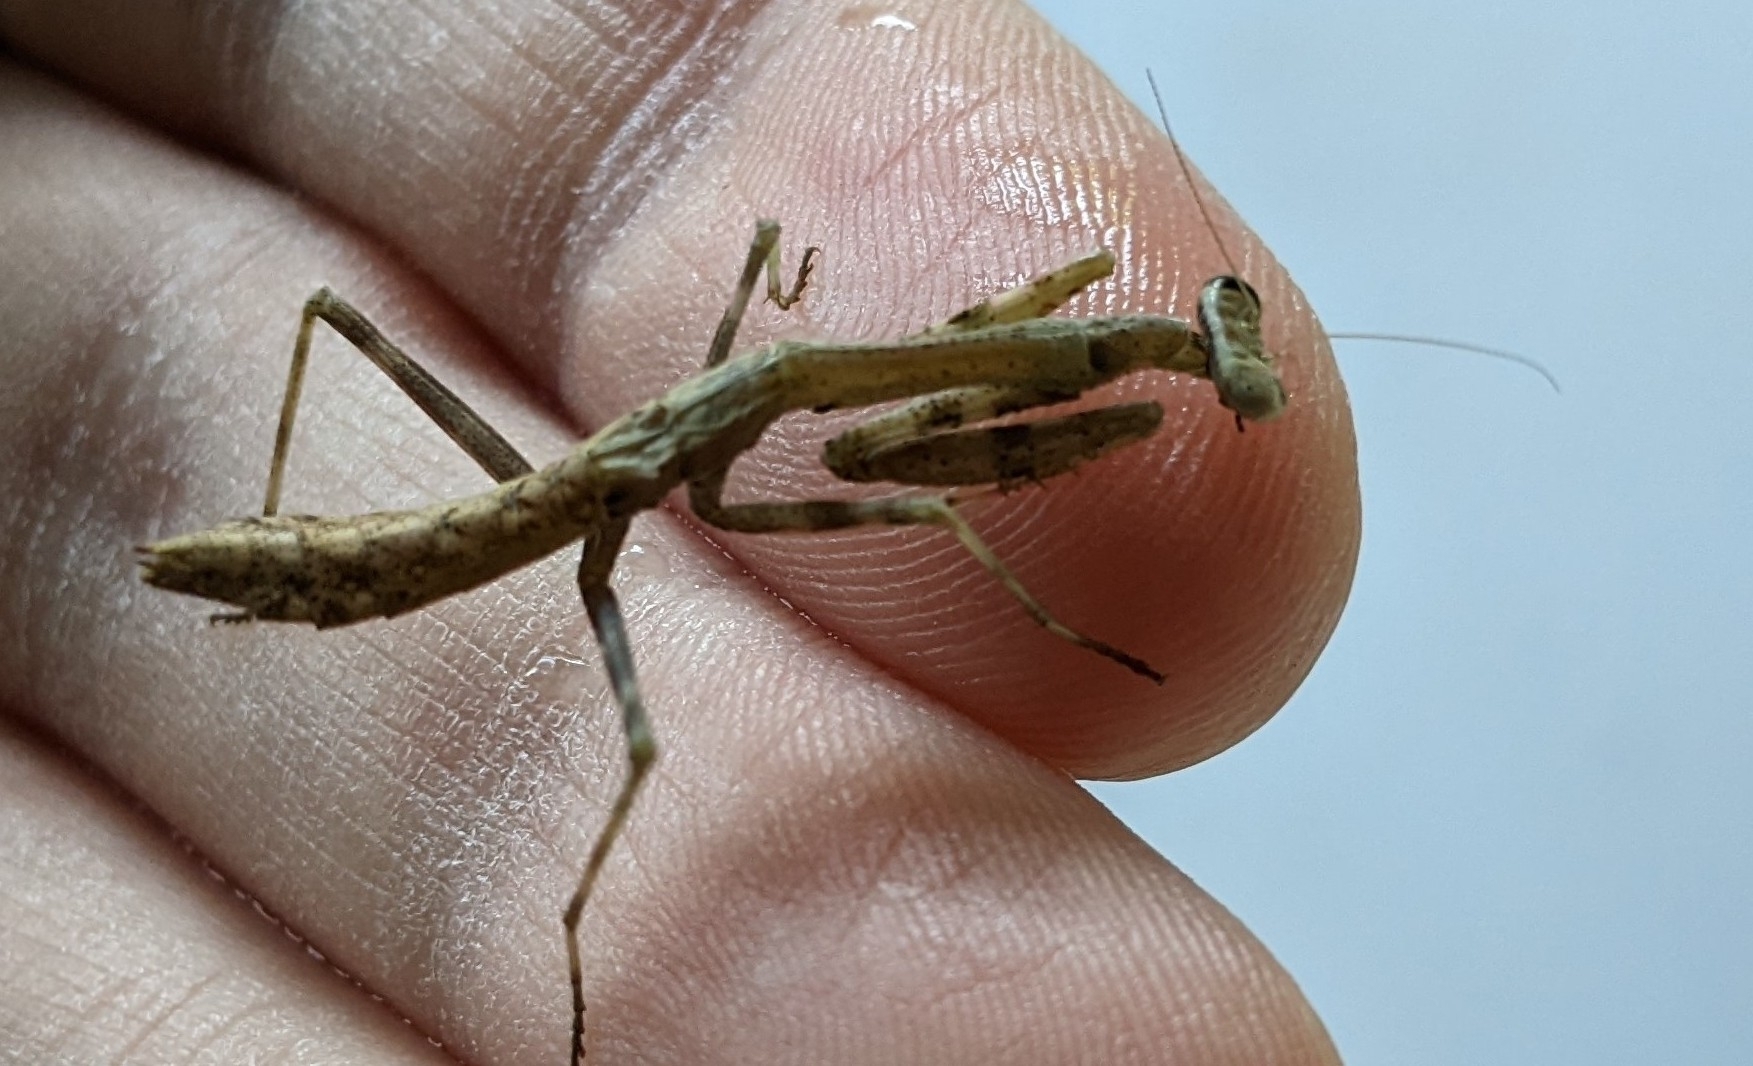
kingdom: Animalia
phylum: Arthropoda
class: Insecta
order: Mantodea
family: Mantidae
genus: Stagmomantis
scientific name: Stagmomantis carolina
